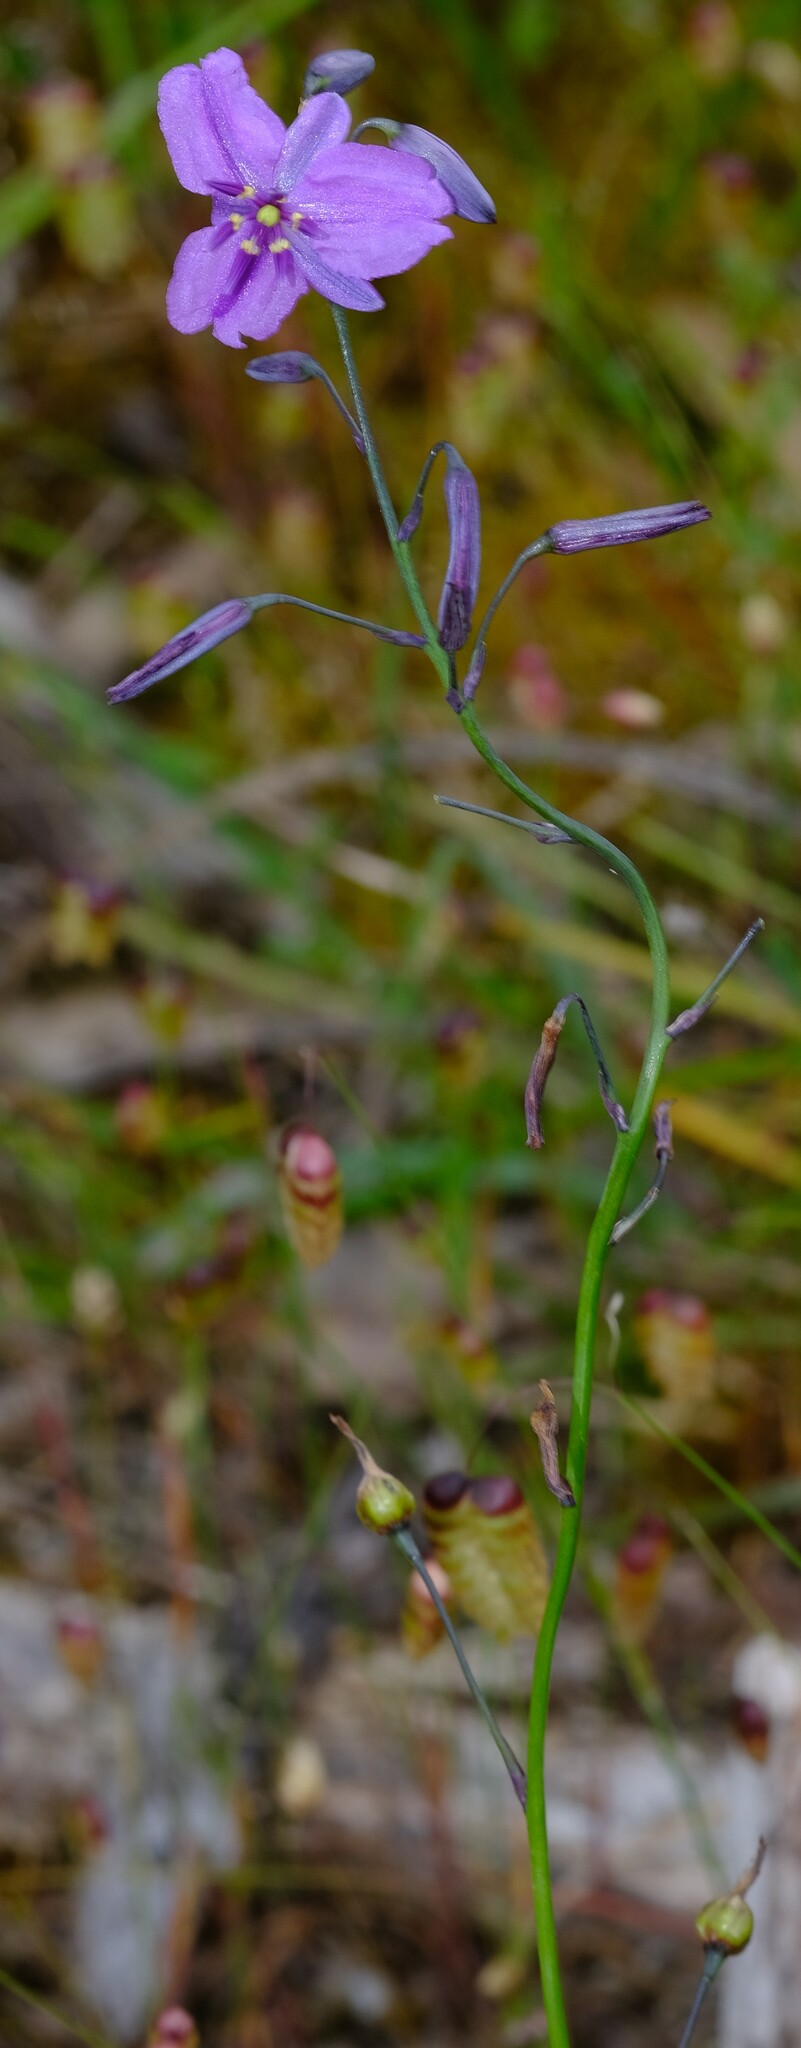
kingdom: Plantae
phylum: Tracheophyta
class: Liliopsida
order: Asparagales
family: Asparagaceae
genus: Arthropodium
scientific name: Arthropodium strictum
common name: Chocolate-lily
